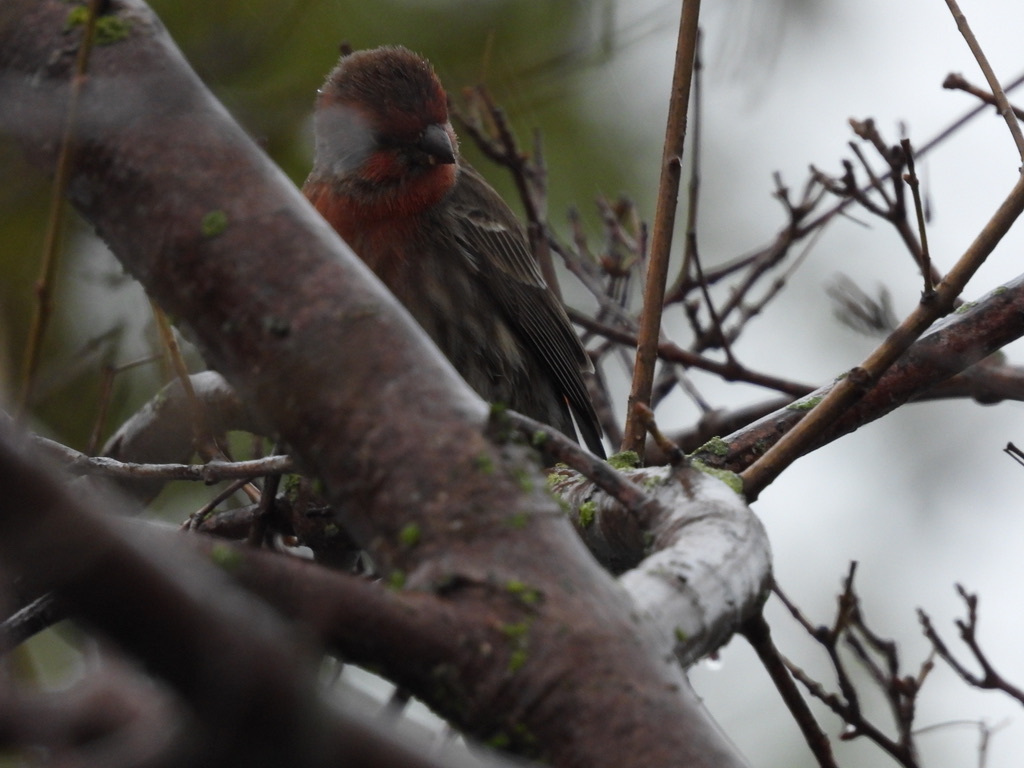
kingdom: Animalia
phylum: Chordata
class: Aves
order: Passeriformes
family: Fringillidae
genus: Haemorhous
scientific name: Haemorhous mexicanus
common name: House finch
